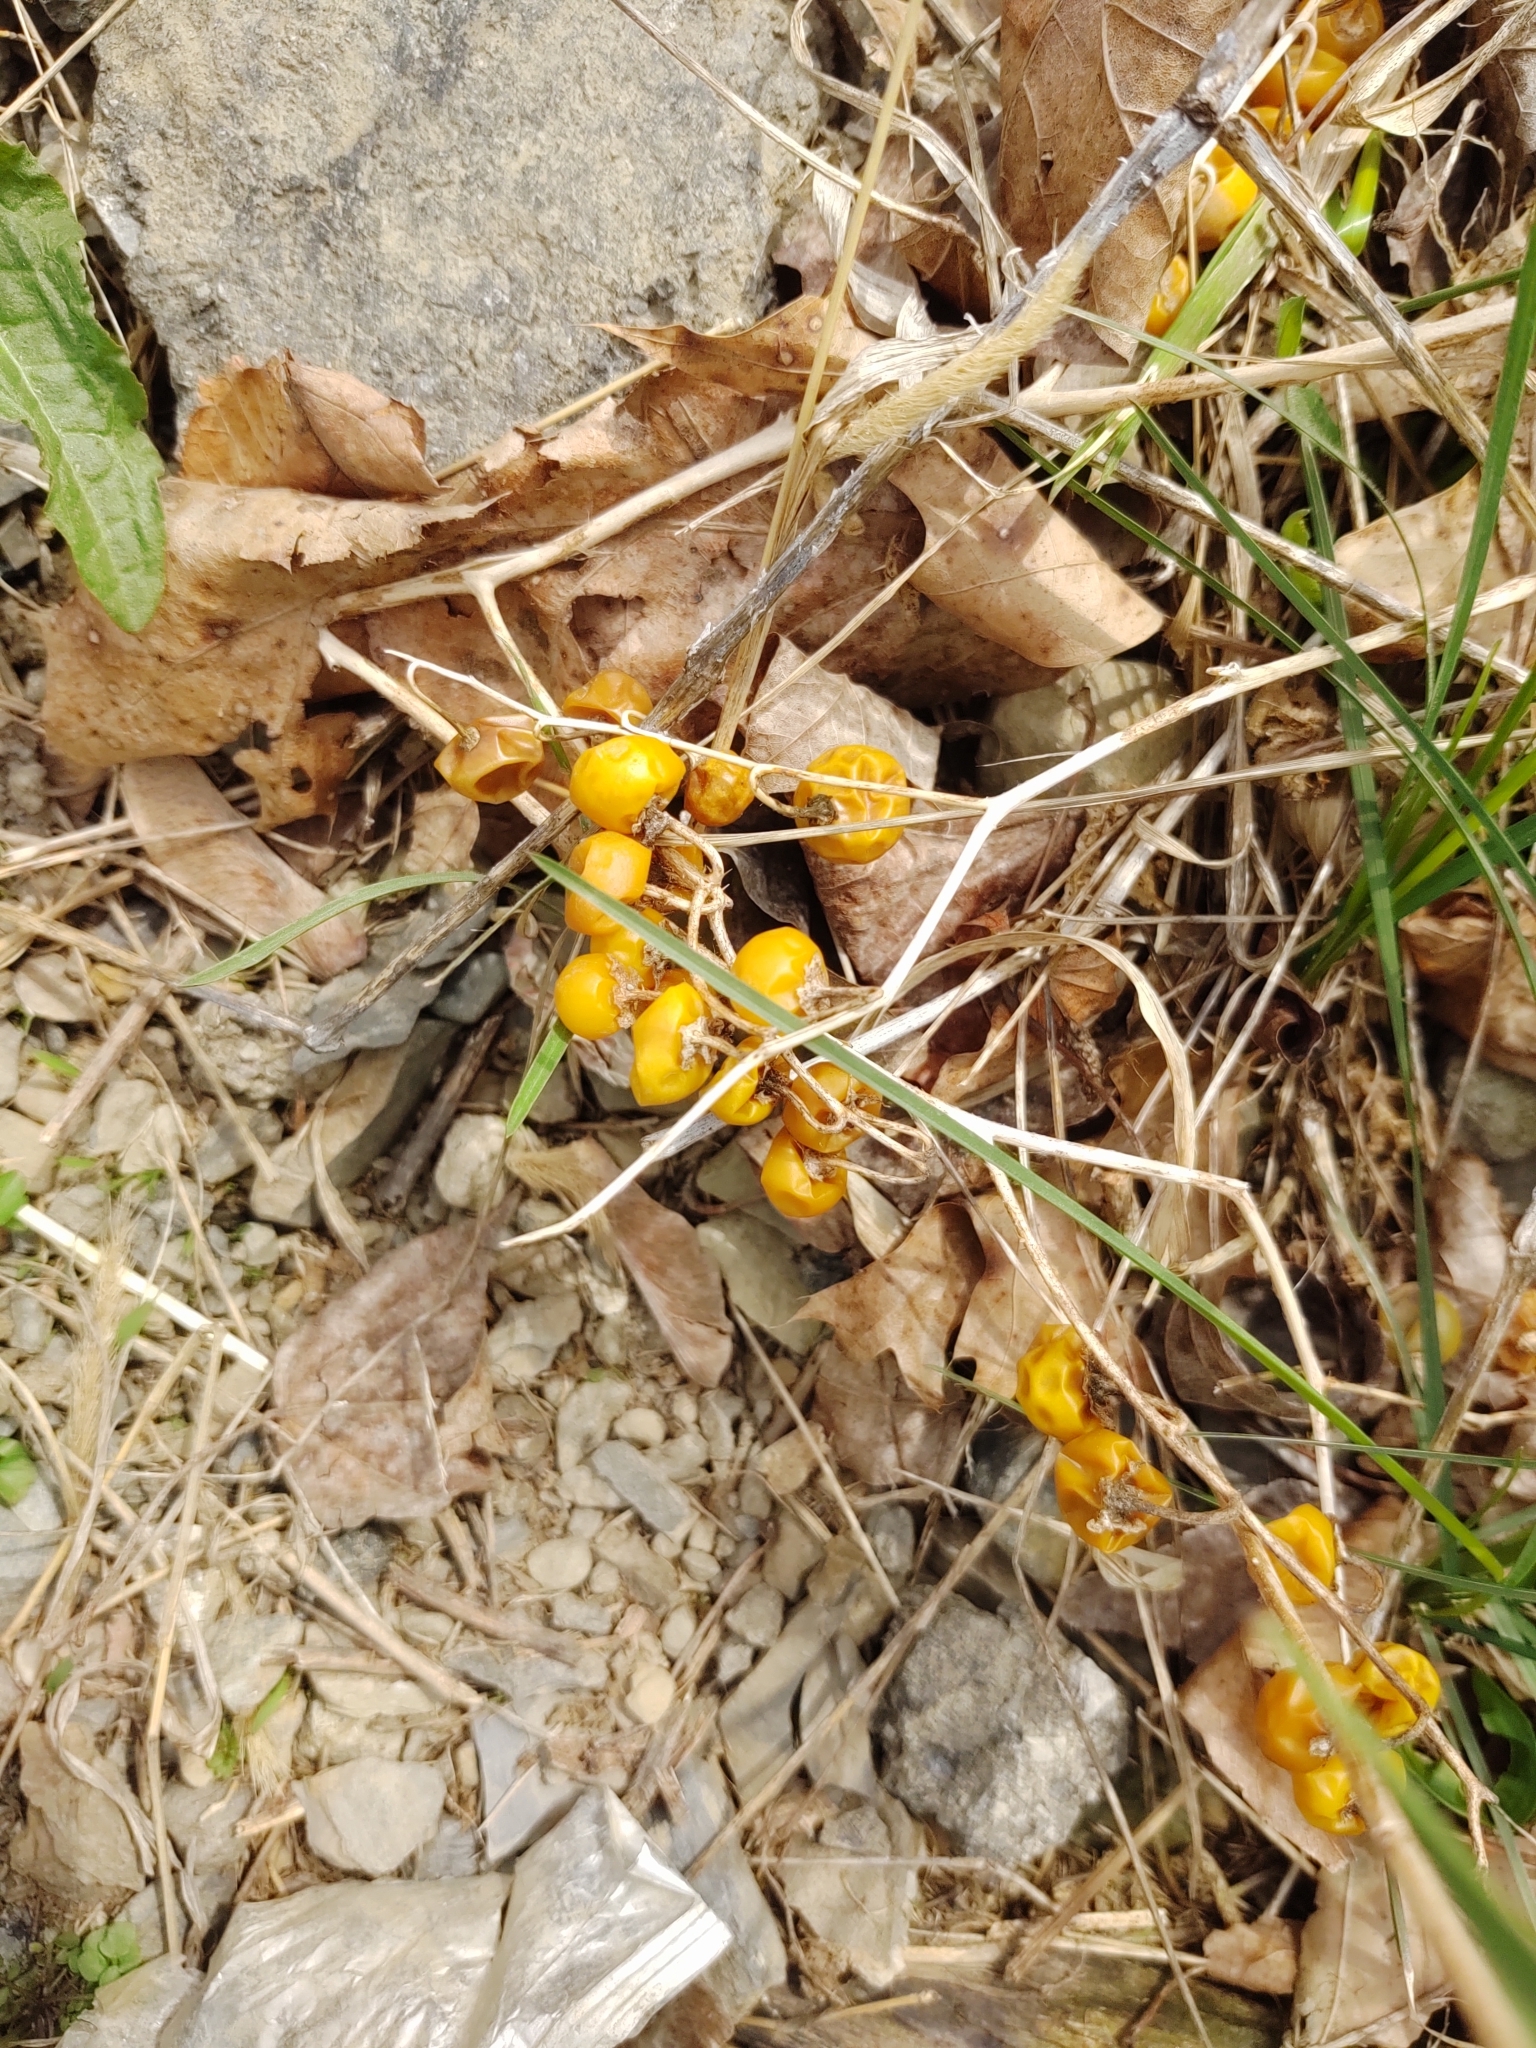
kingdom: Plantae
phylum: Tracheophyta
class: Magnoliopsida
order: Solanales
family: Solanaceae
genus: Solanum
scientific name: Solanum carolinense
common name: Horse-nettle
